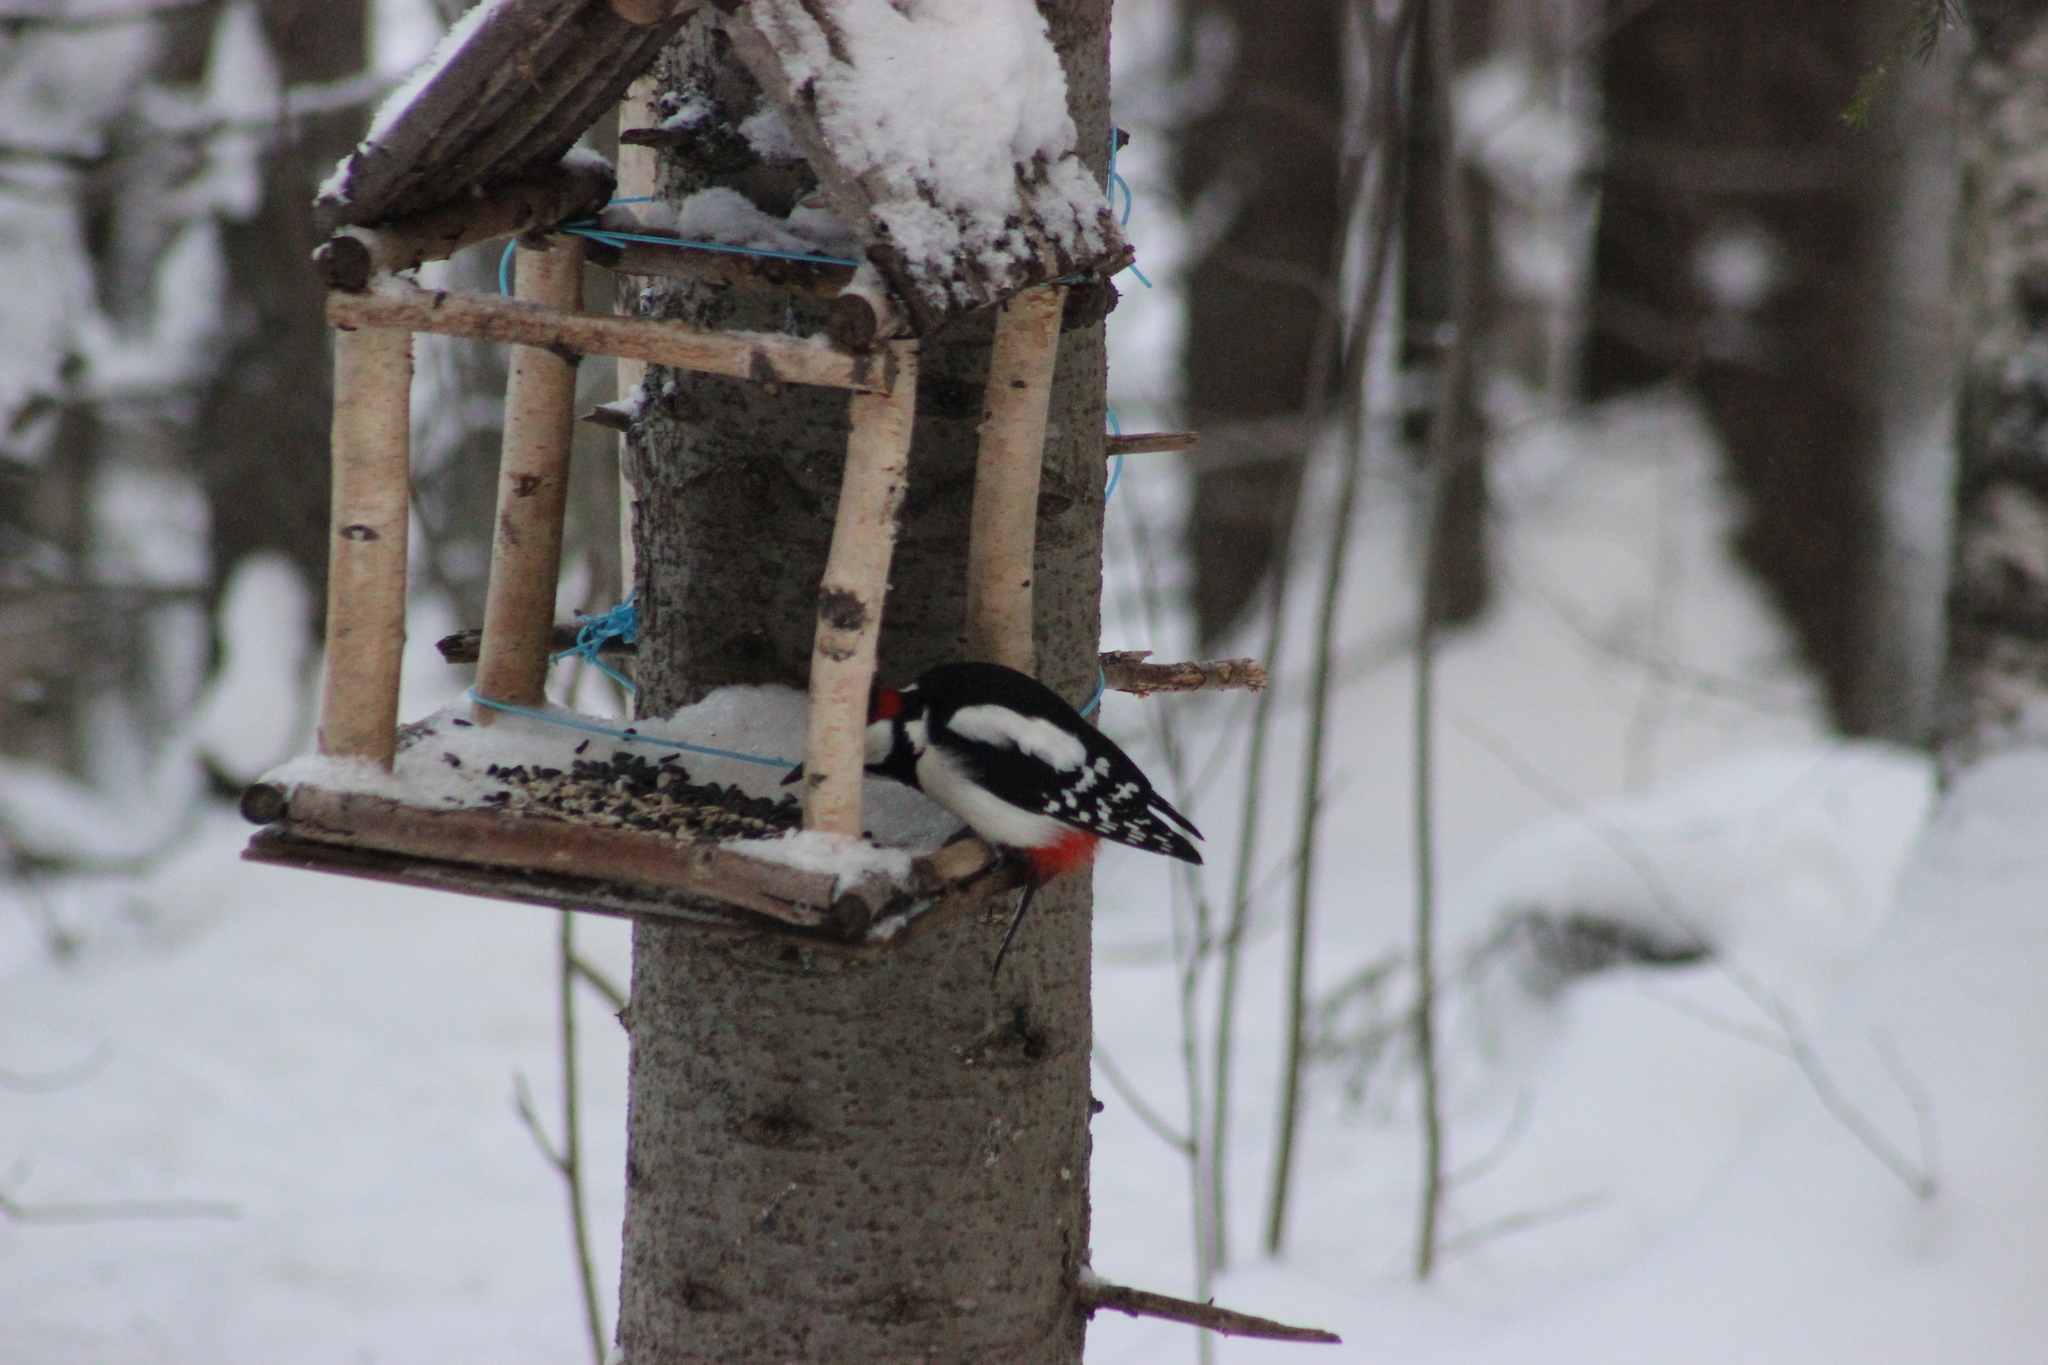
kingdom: Animalia
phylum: Chordata
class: Aves
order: Piciformes
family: Picidae
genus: Dendrocopos
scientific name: Dendrocopos major
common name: Great spotted woodpecker
